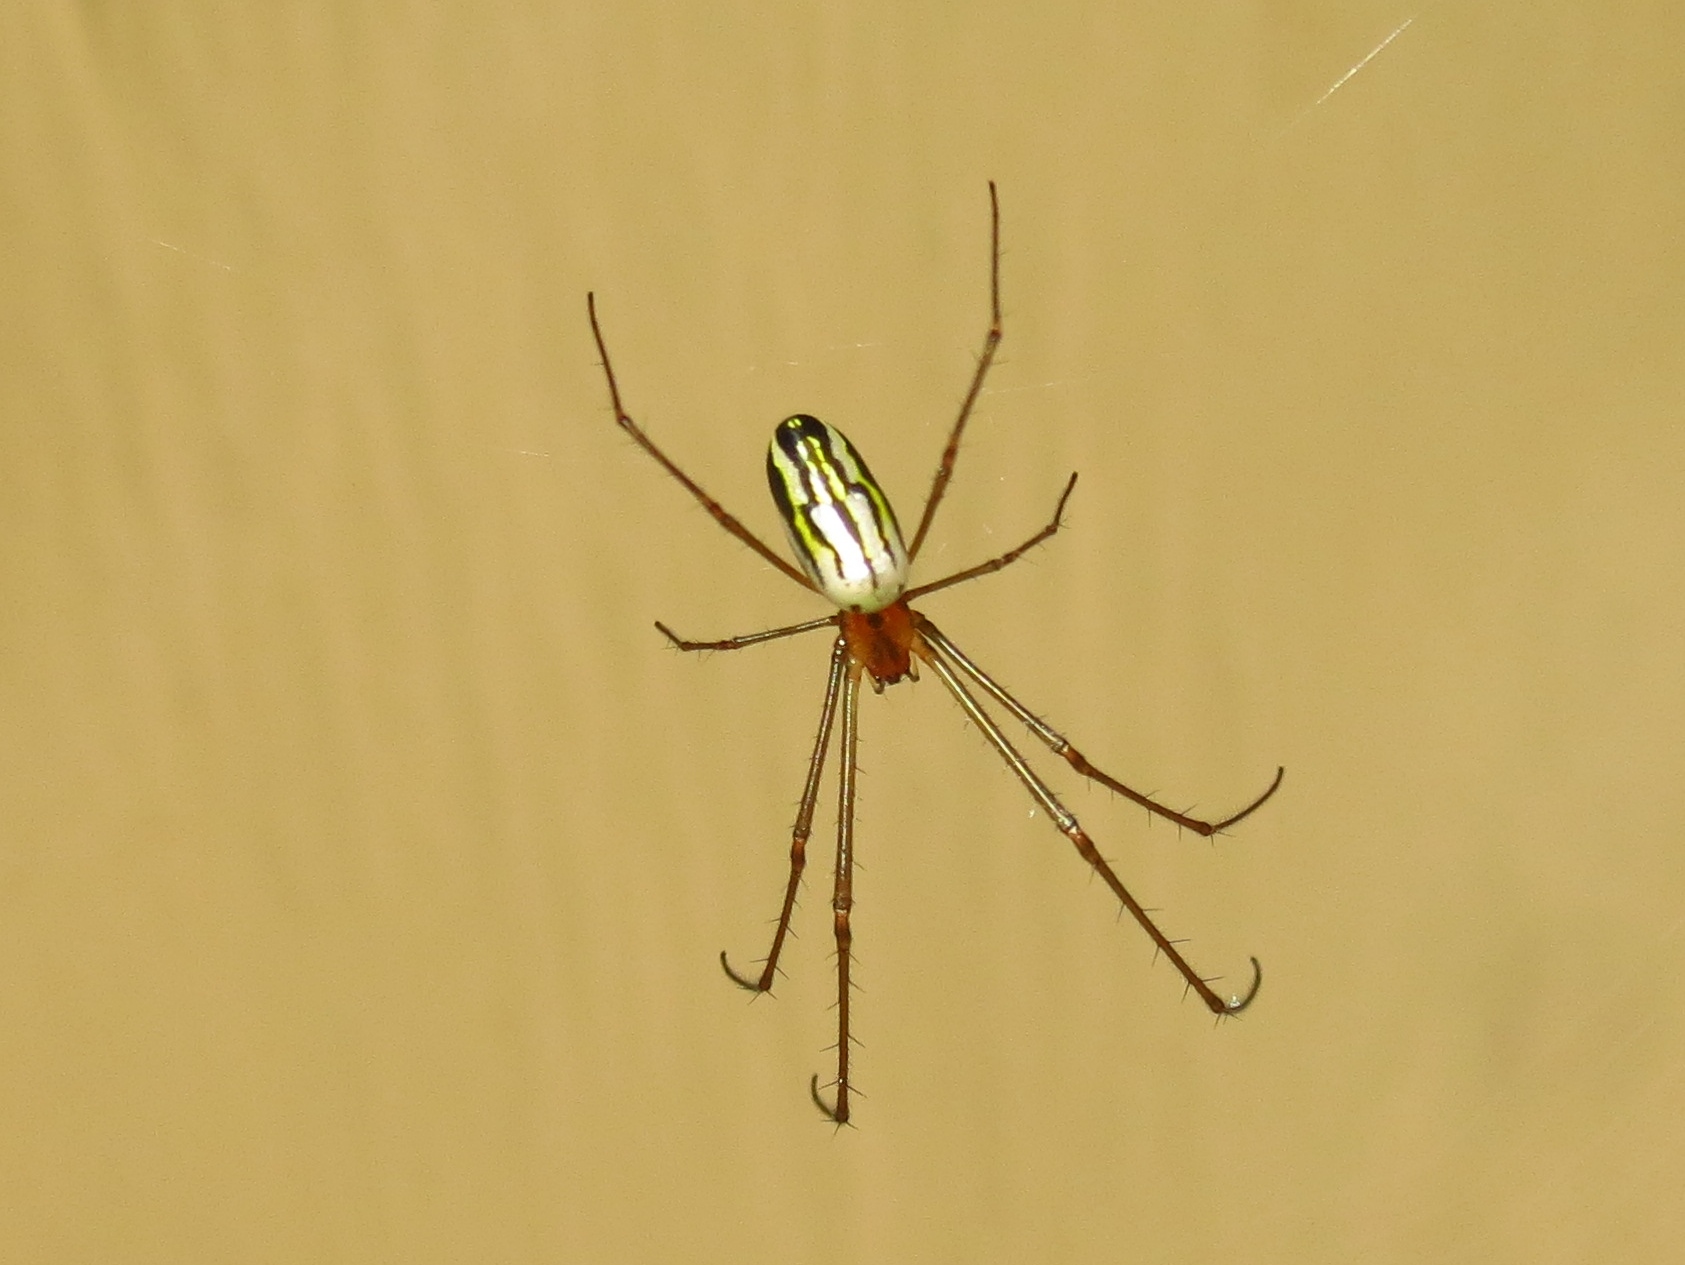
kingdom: Animalia
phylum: Arthropoda
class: Arachnida
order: Araneae
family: Tetragnathidae
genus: Leucauge
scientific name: Leucauge argyra
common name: Longjawed orb weavers
